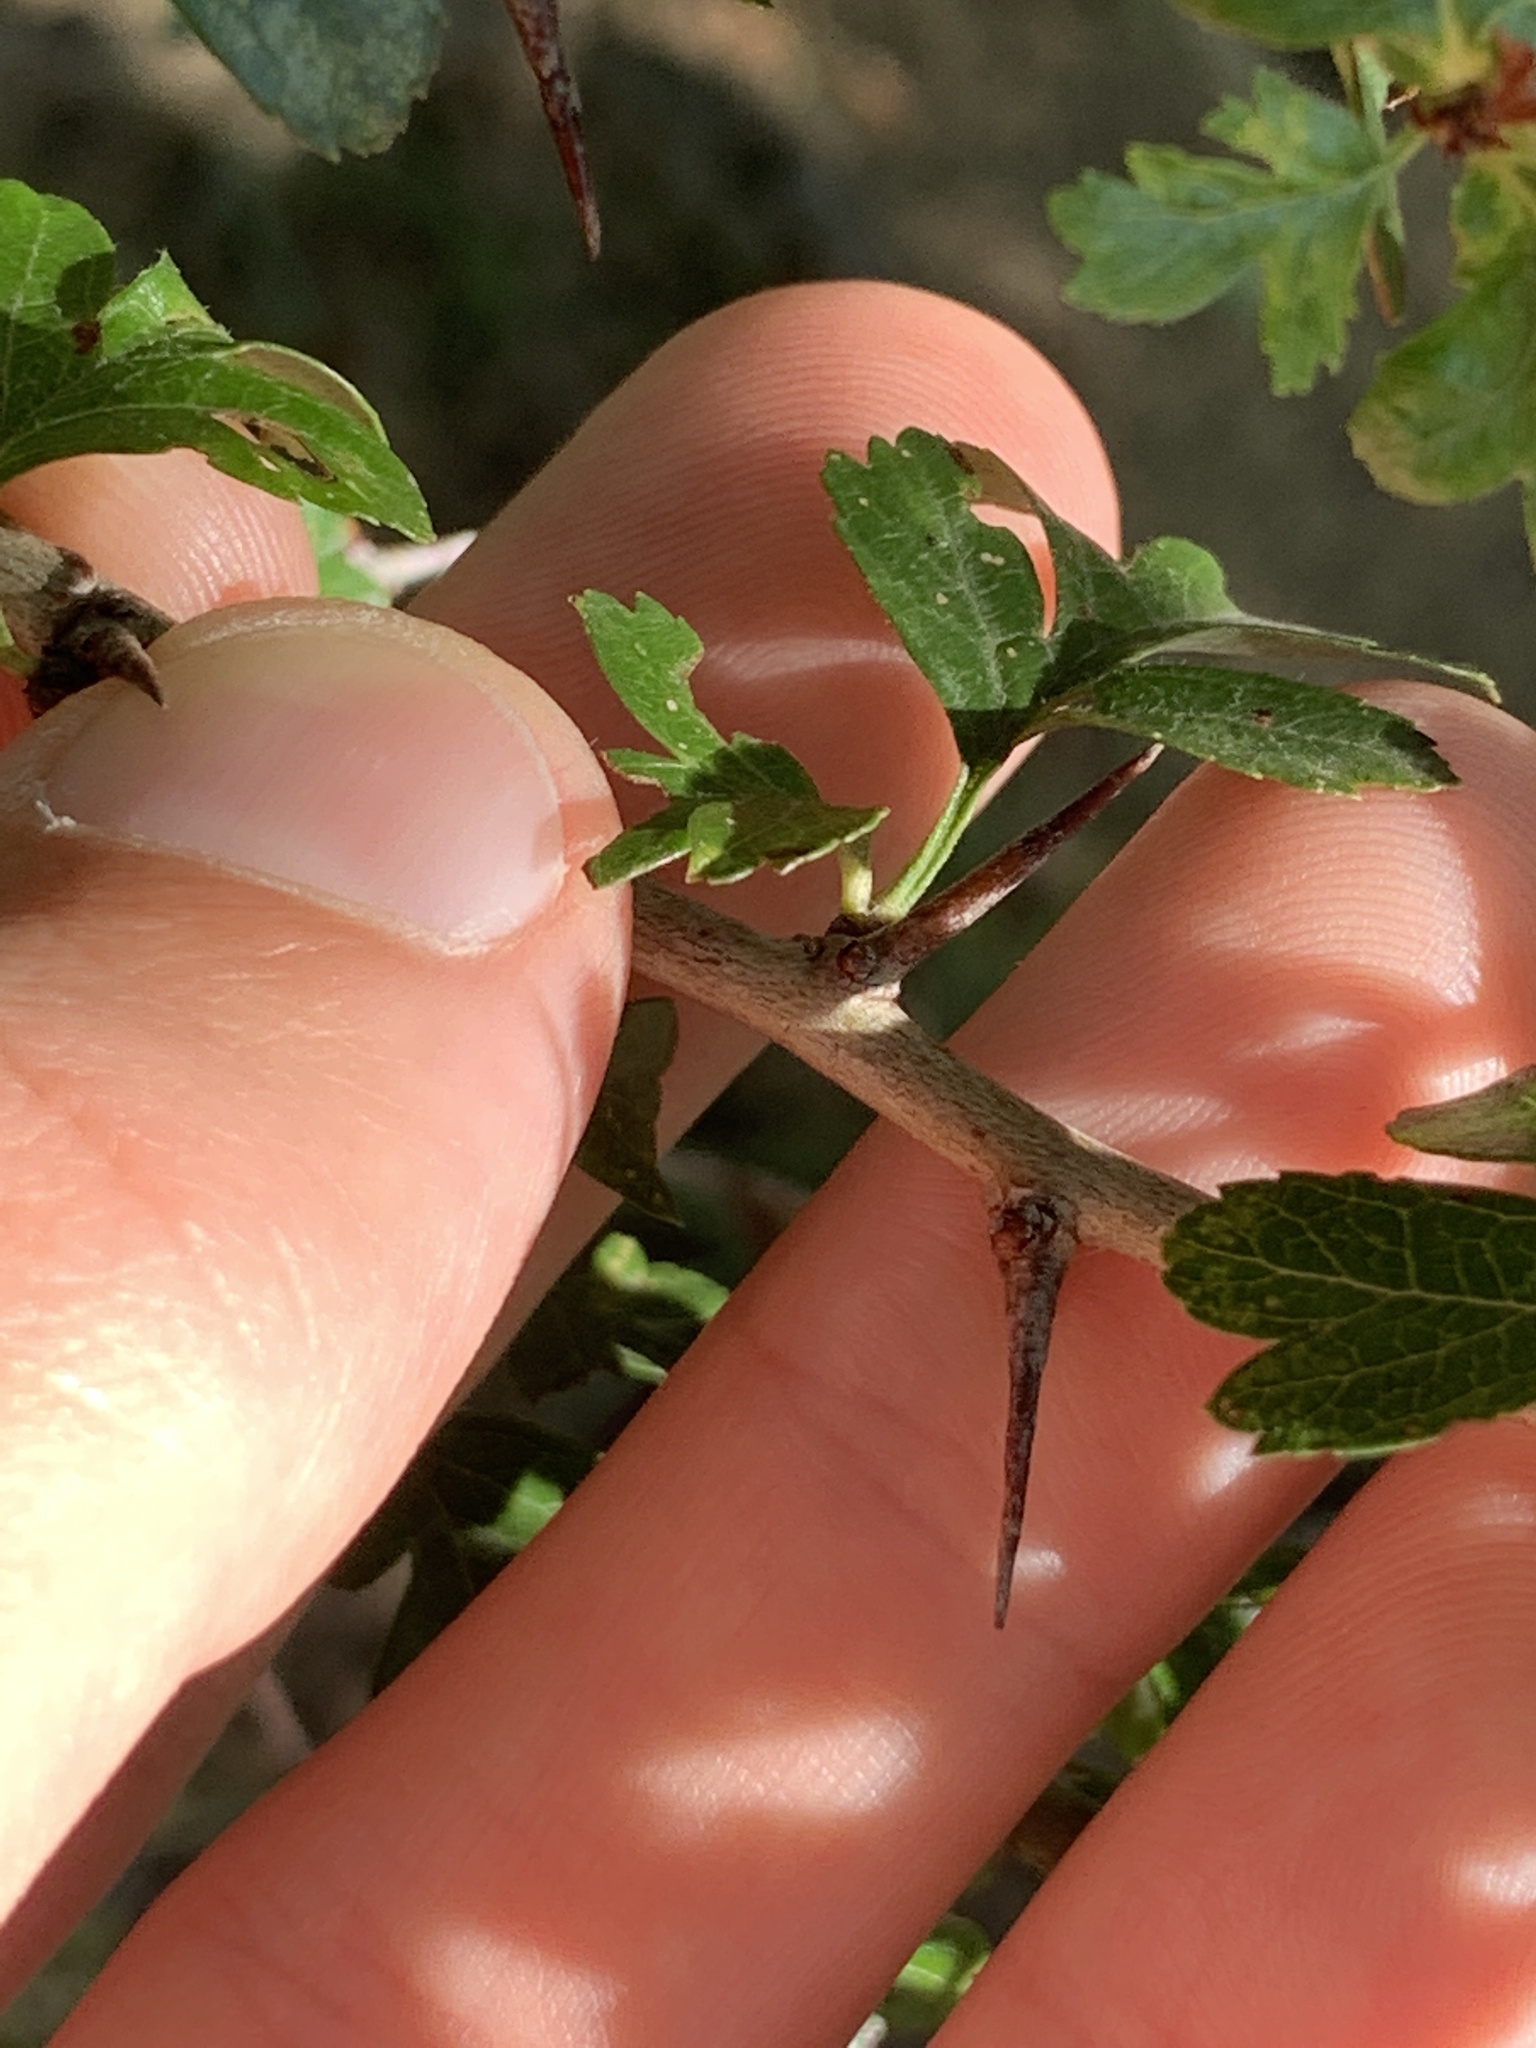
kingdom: Plantae
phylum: Tracheophyta
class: Magnoliopsida
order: Rosales
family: Rosaceae
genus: Crataegus
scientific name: Crataegus monogyna
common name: Hawthorn
